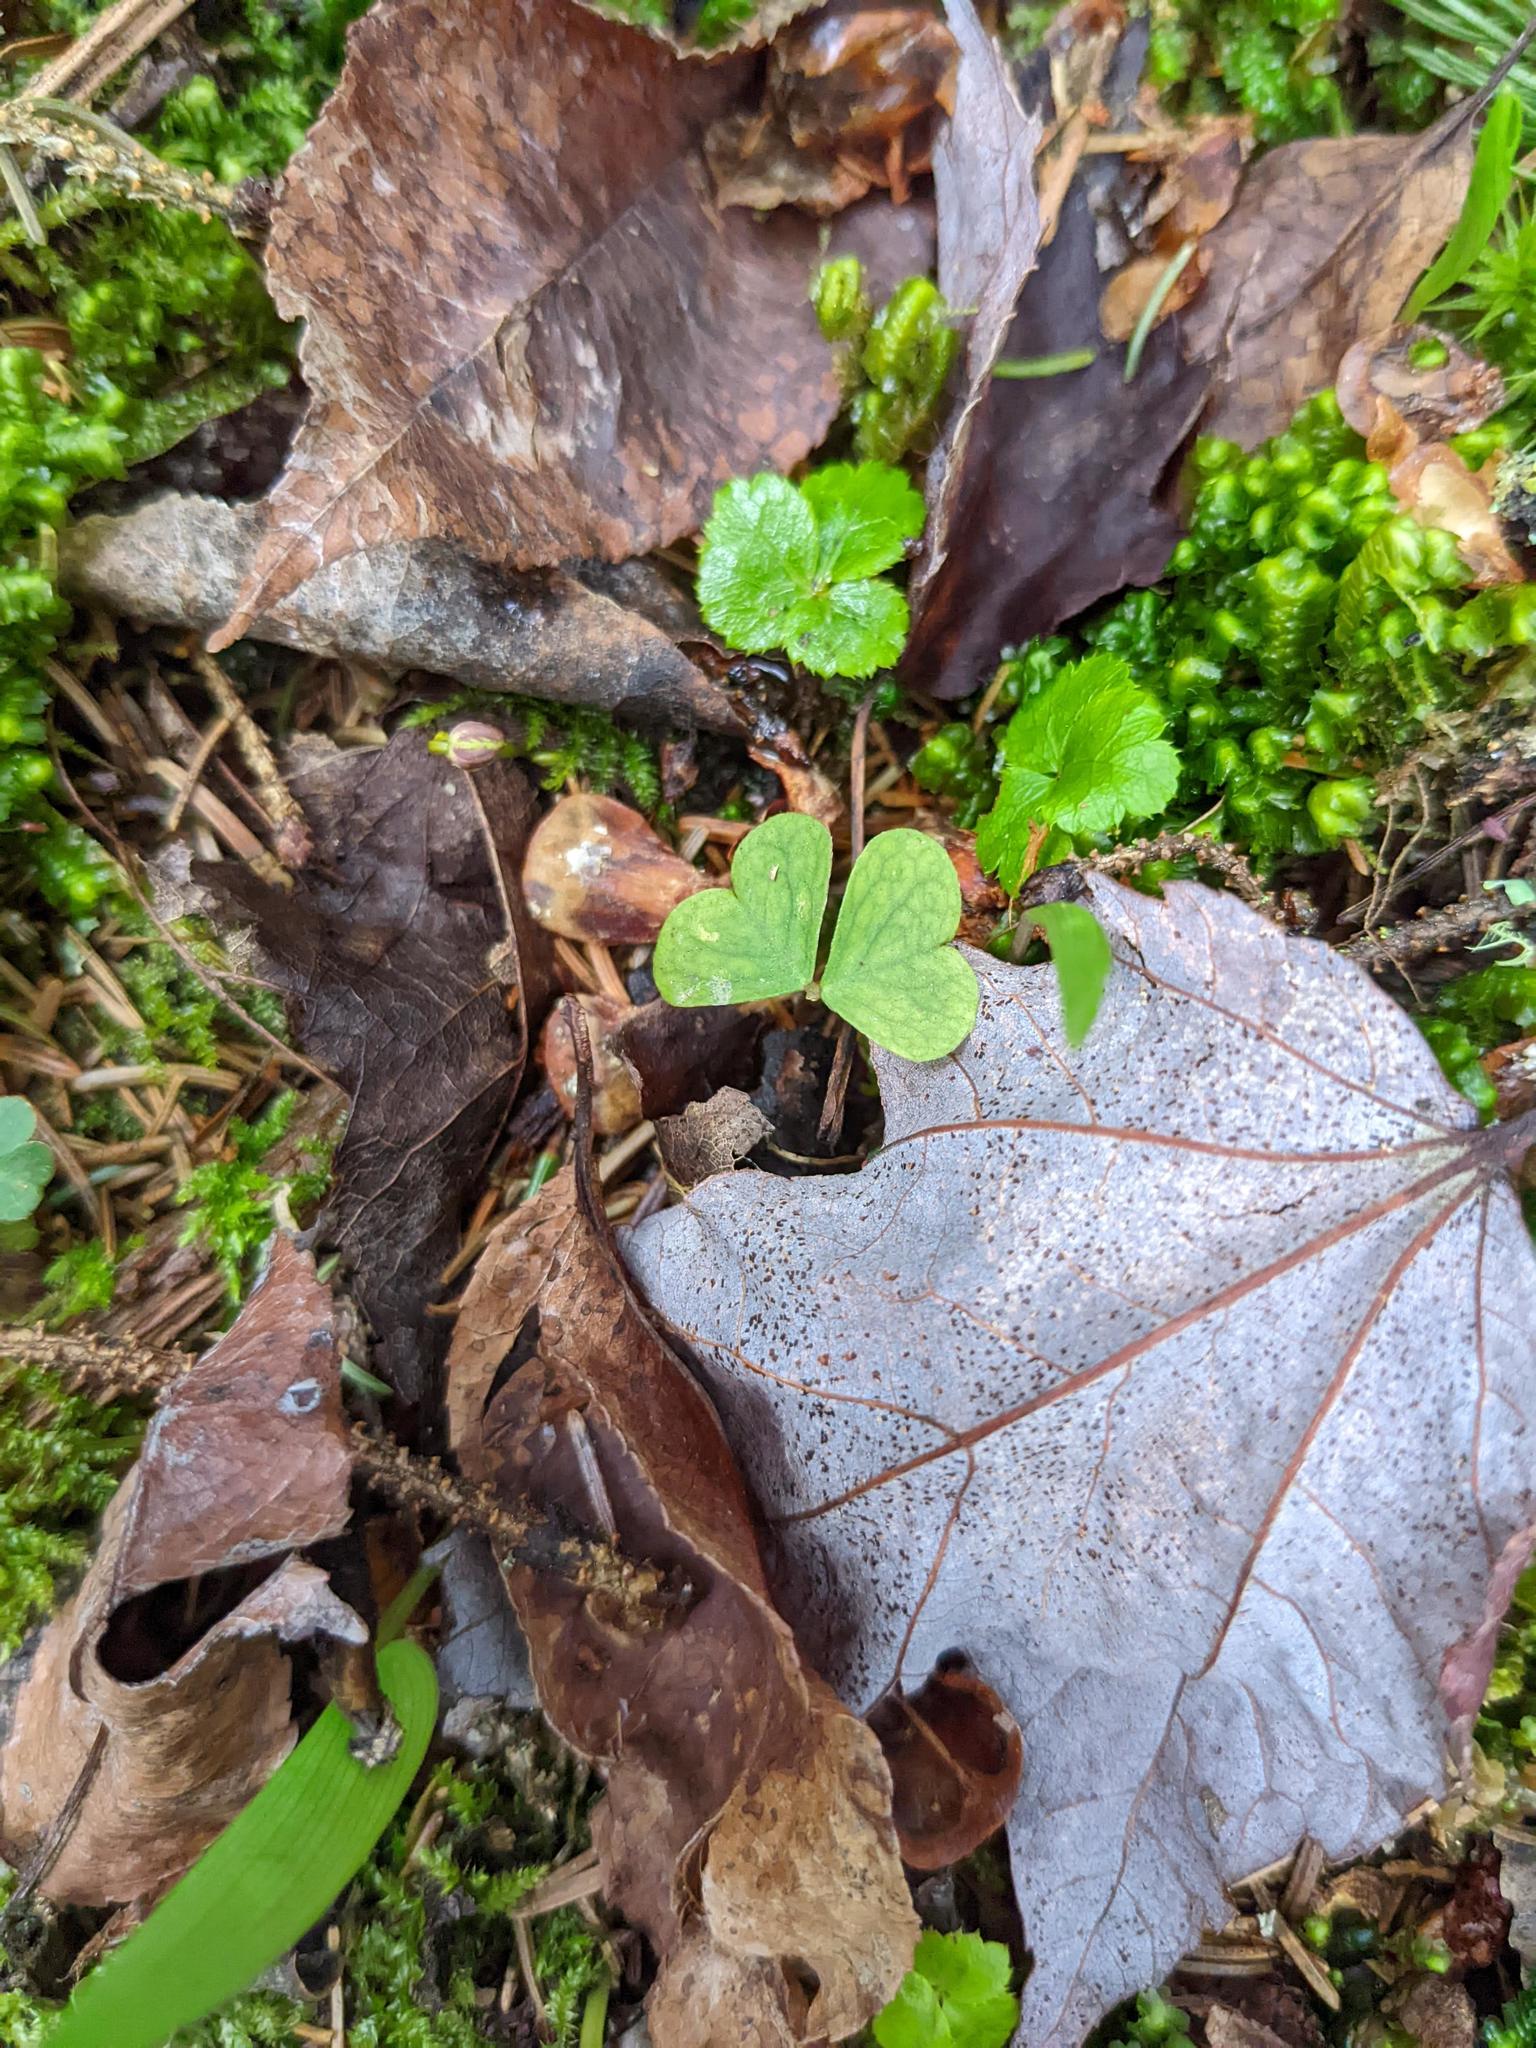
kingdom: Plantae
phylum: Tracheophyta
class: Magnoliopsida
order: Oxalidales
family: Oxalidaceae
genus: Oxalis
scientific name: Oxalis montana
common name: American wood-sorrel
